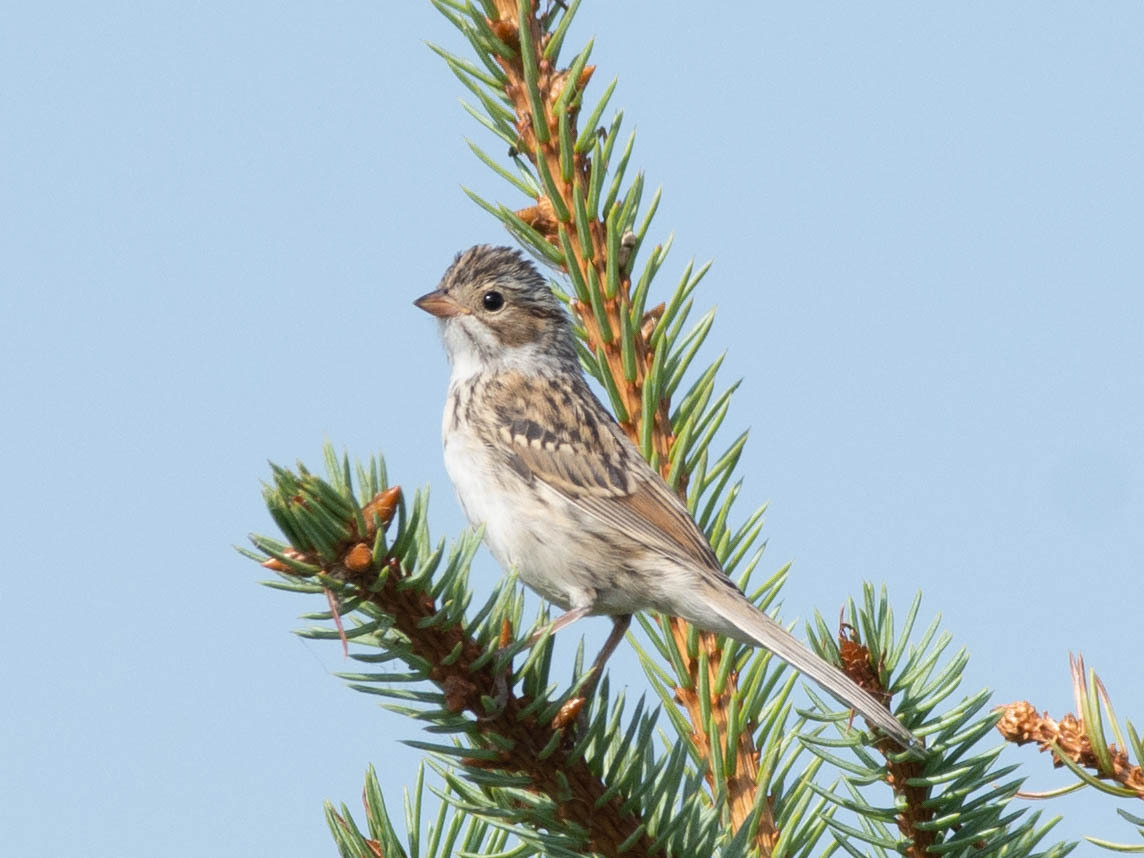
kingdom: Animalia
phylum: Chordata
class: Aves
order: Passeriformes
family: Passerellidae
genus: Spizella
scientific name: Spizella pallida
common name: Clay-colored sparrow
